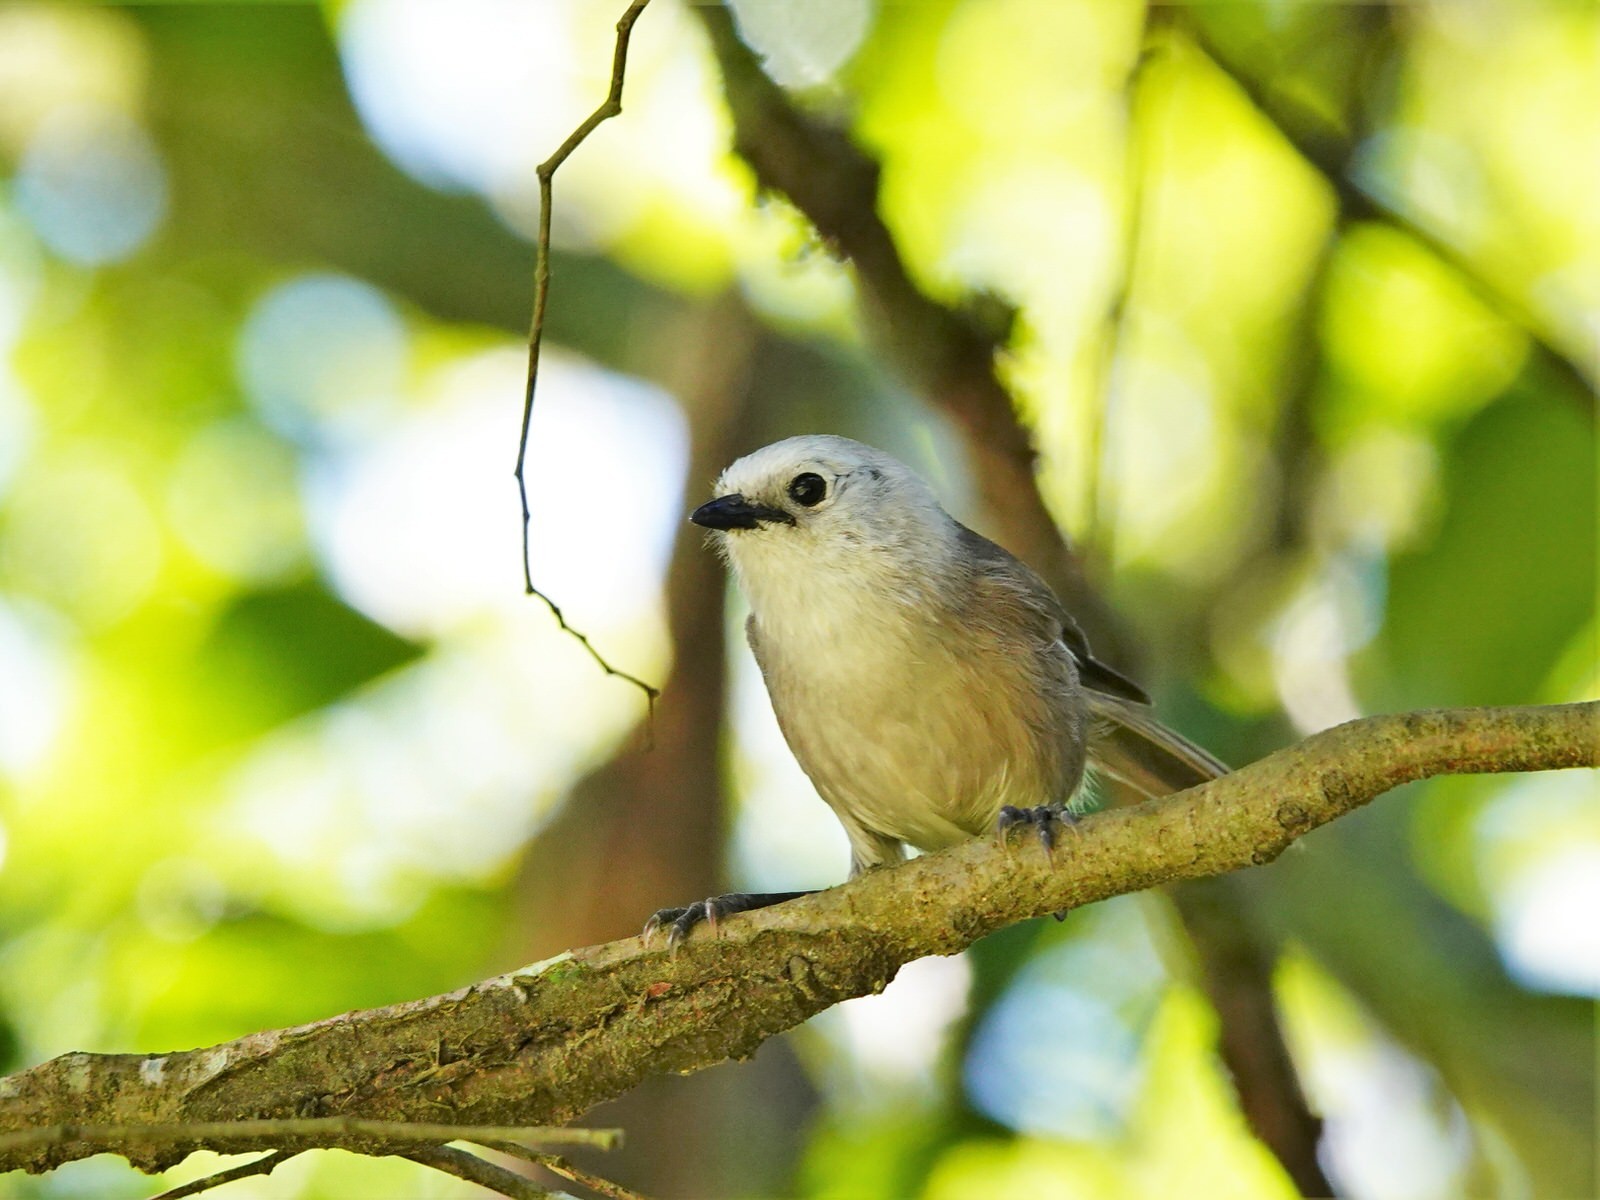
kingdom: Animalia
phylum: Chordata
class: Aves
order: Passeriformes
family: Acanthizidae
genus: Mohoua
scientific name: Mohoua albicilla
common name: Whitehead
